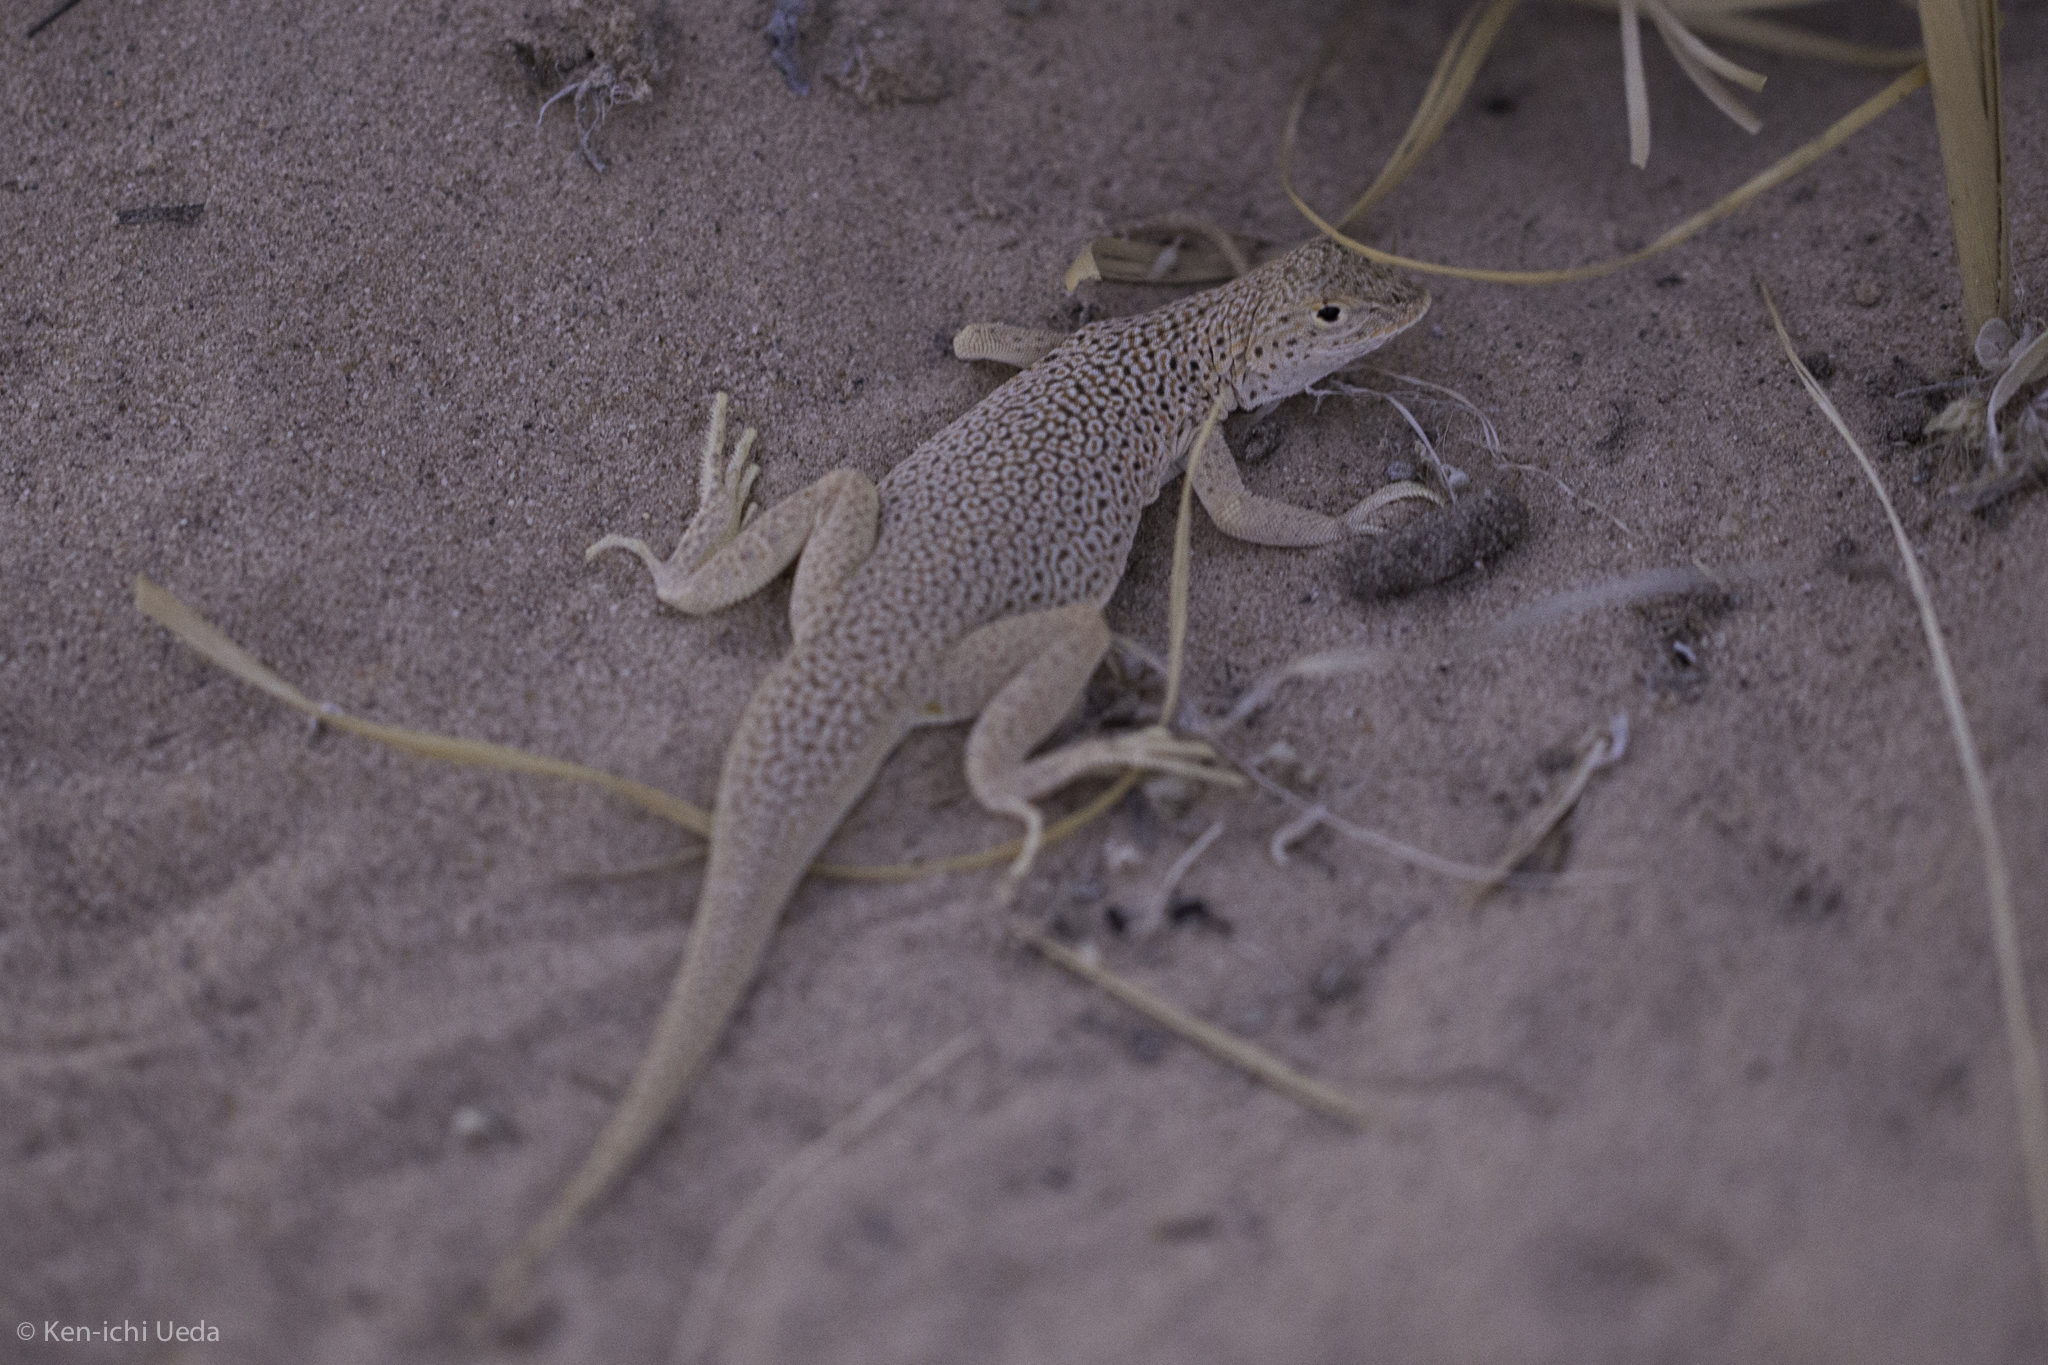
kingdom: Animalia
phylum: Chordata
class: Squamata
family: Phrynosomatidae
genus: Uma
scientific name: Uma scoparia
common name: Mojave fringe-toed lizard
